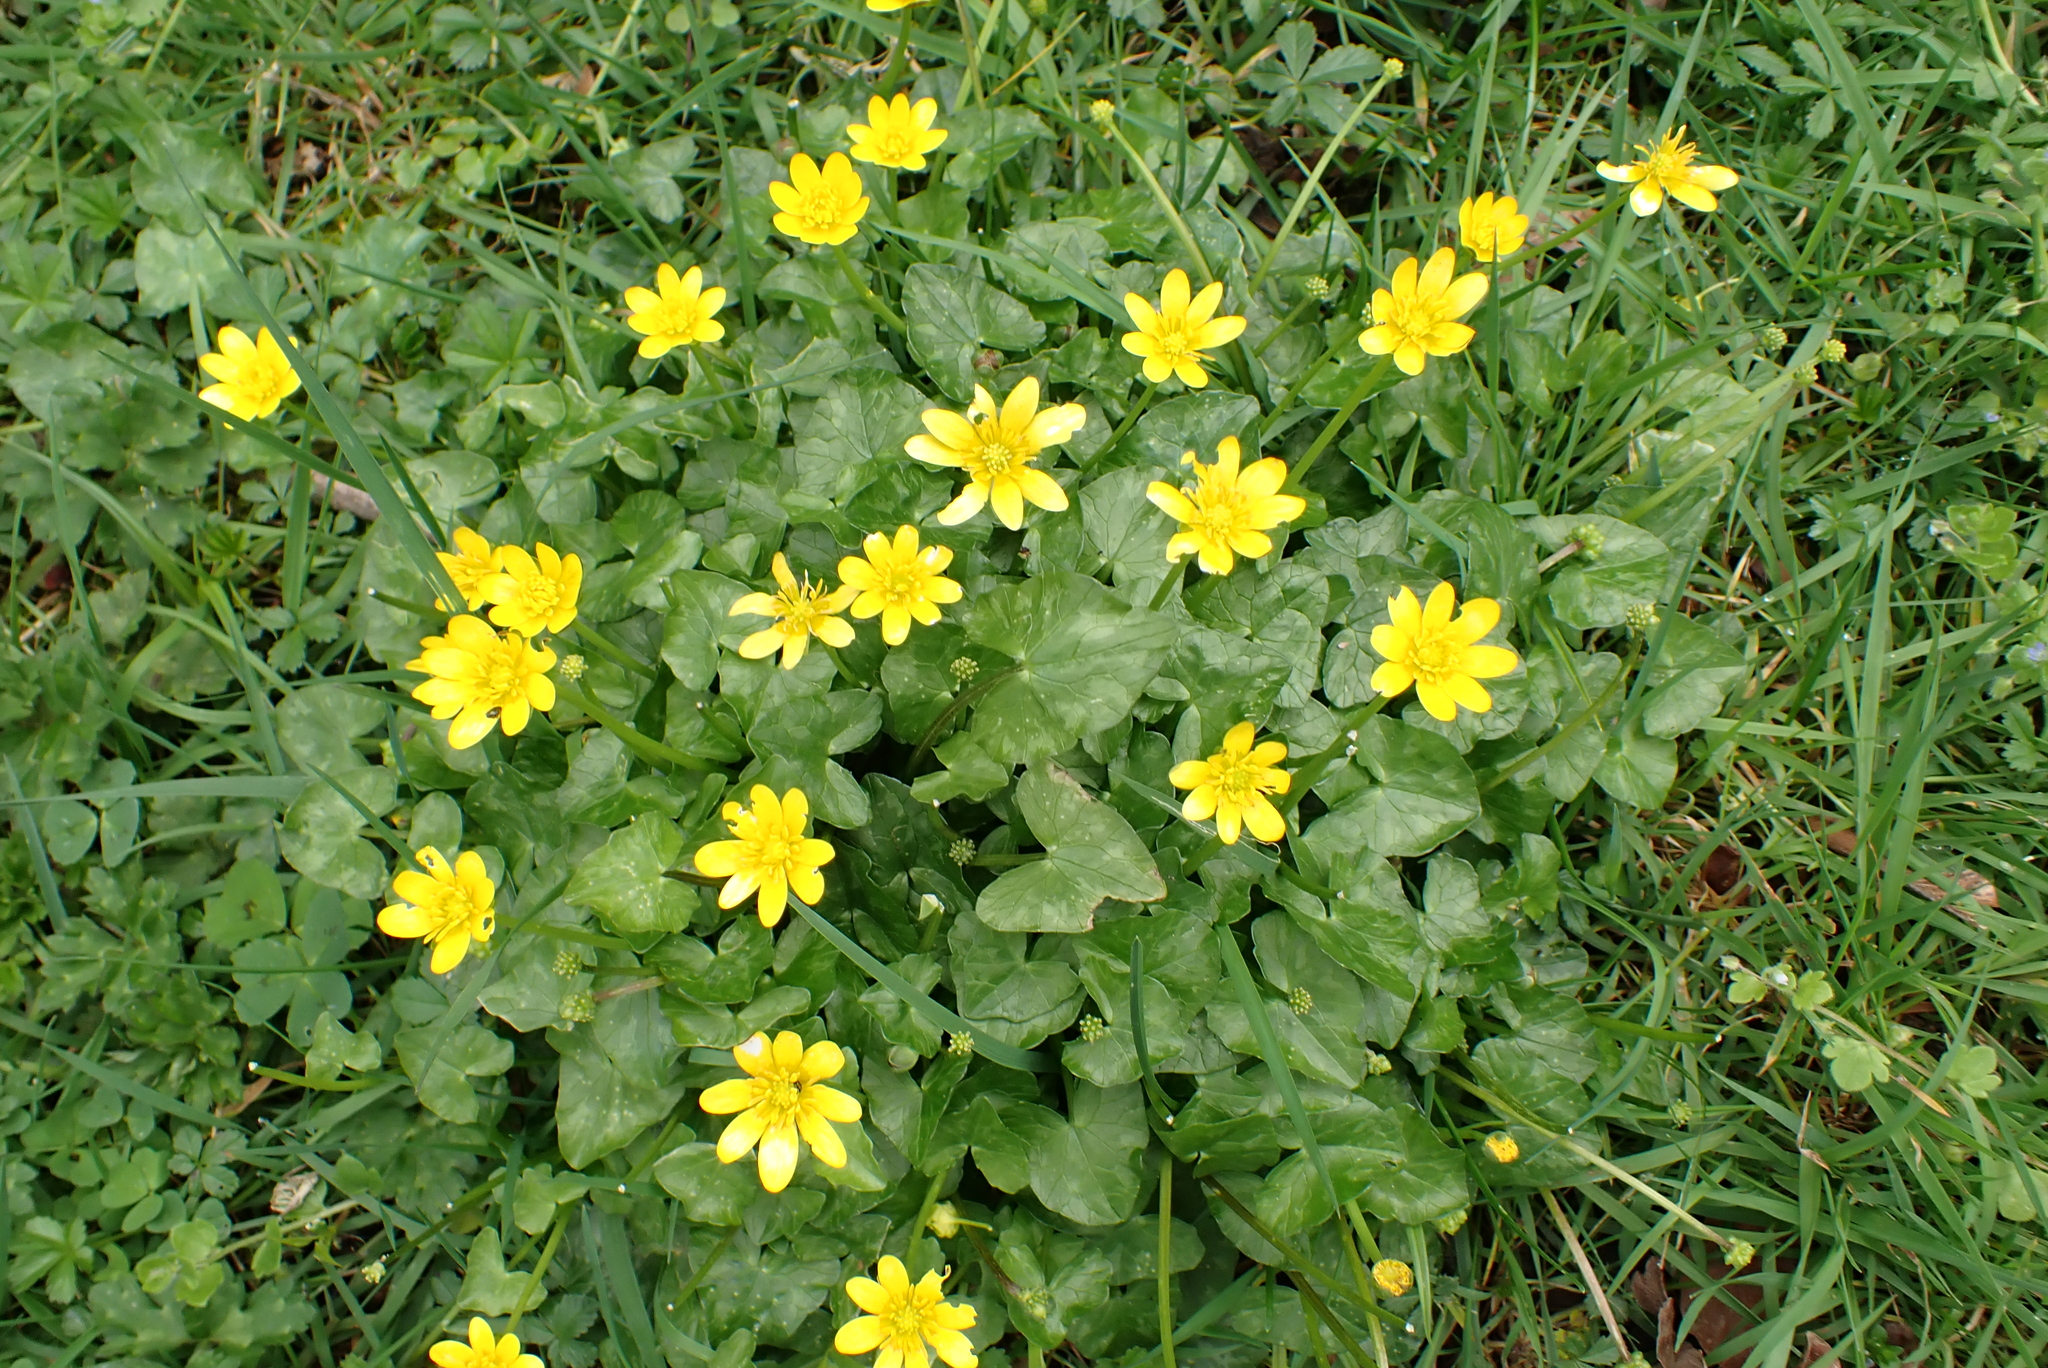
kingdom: Plantae
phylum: Tracheophyta
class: Magnoliopsida
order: Ranunculales
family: Ranunculaceae
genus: Ficaria
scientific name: Ficaria verna
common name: Lesser celandine
